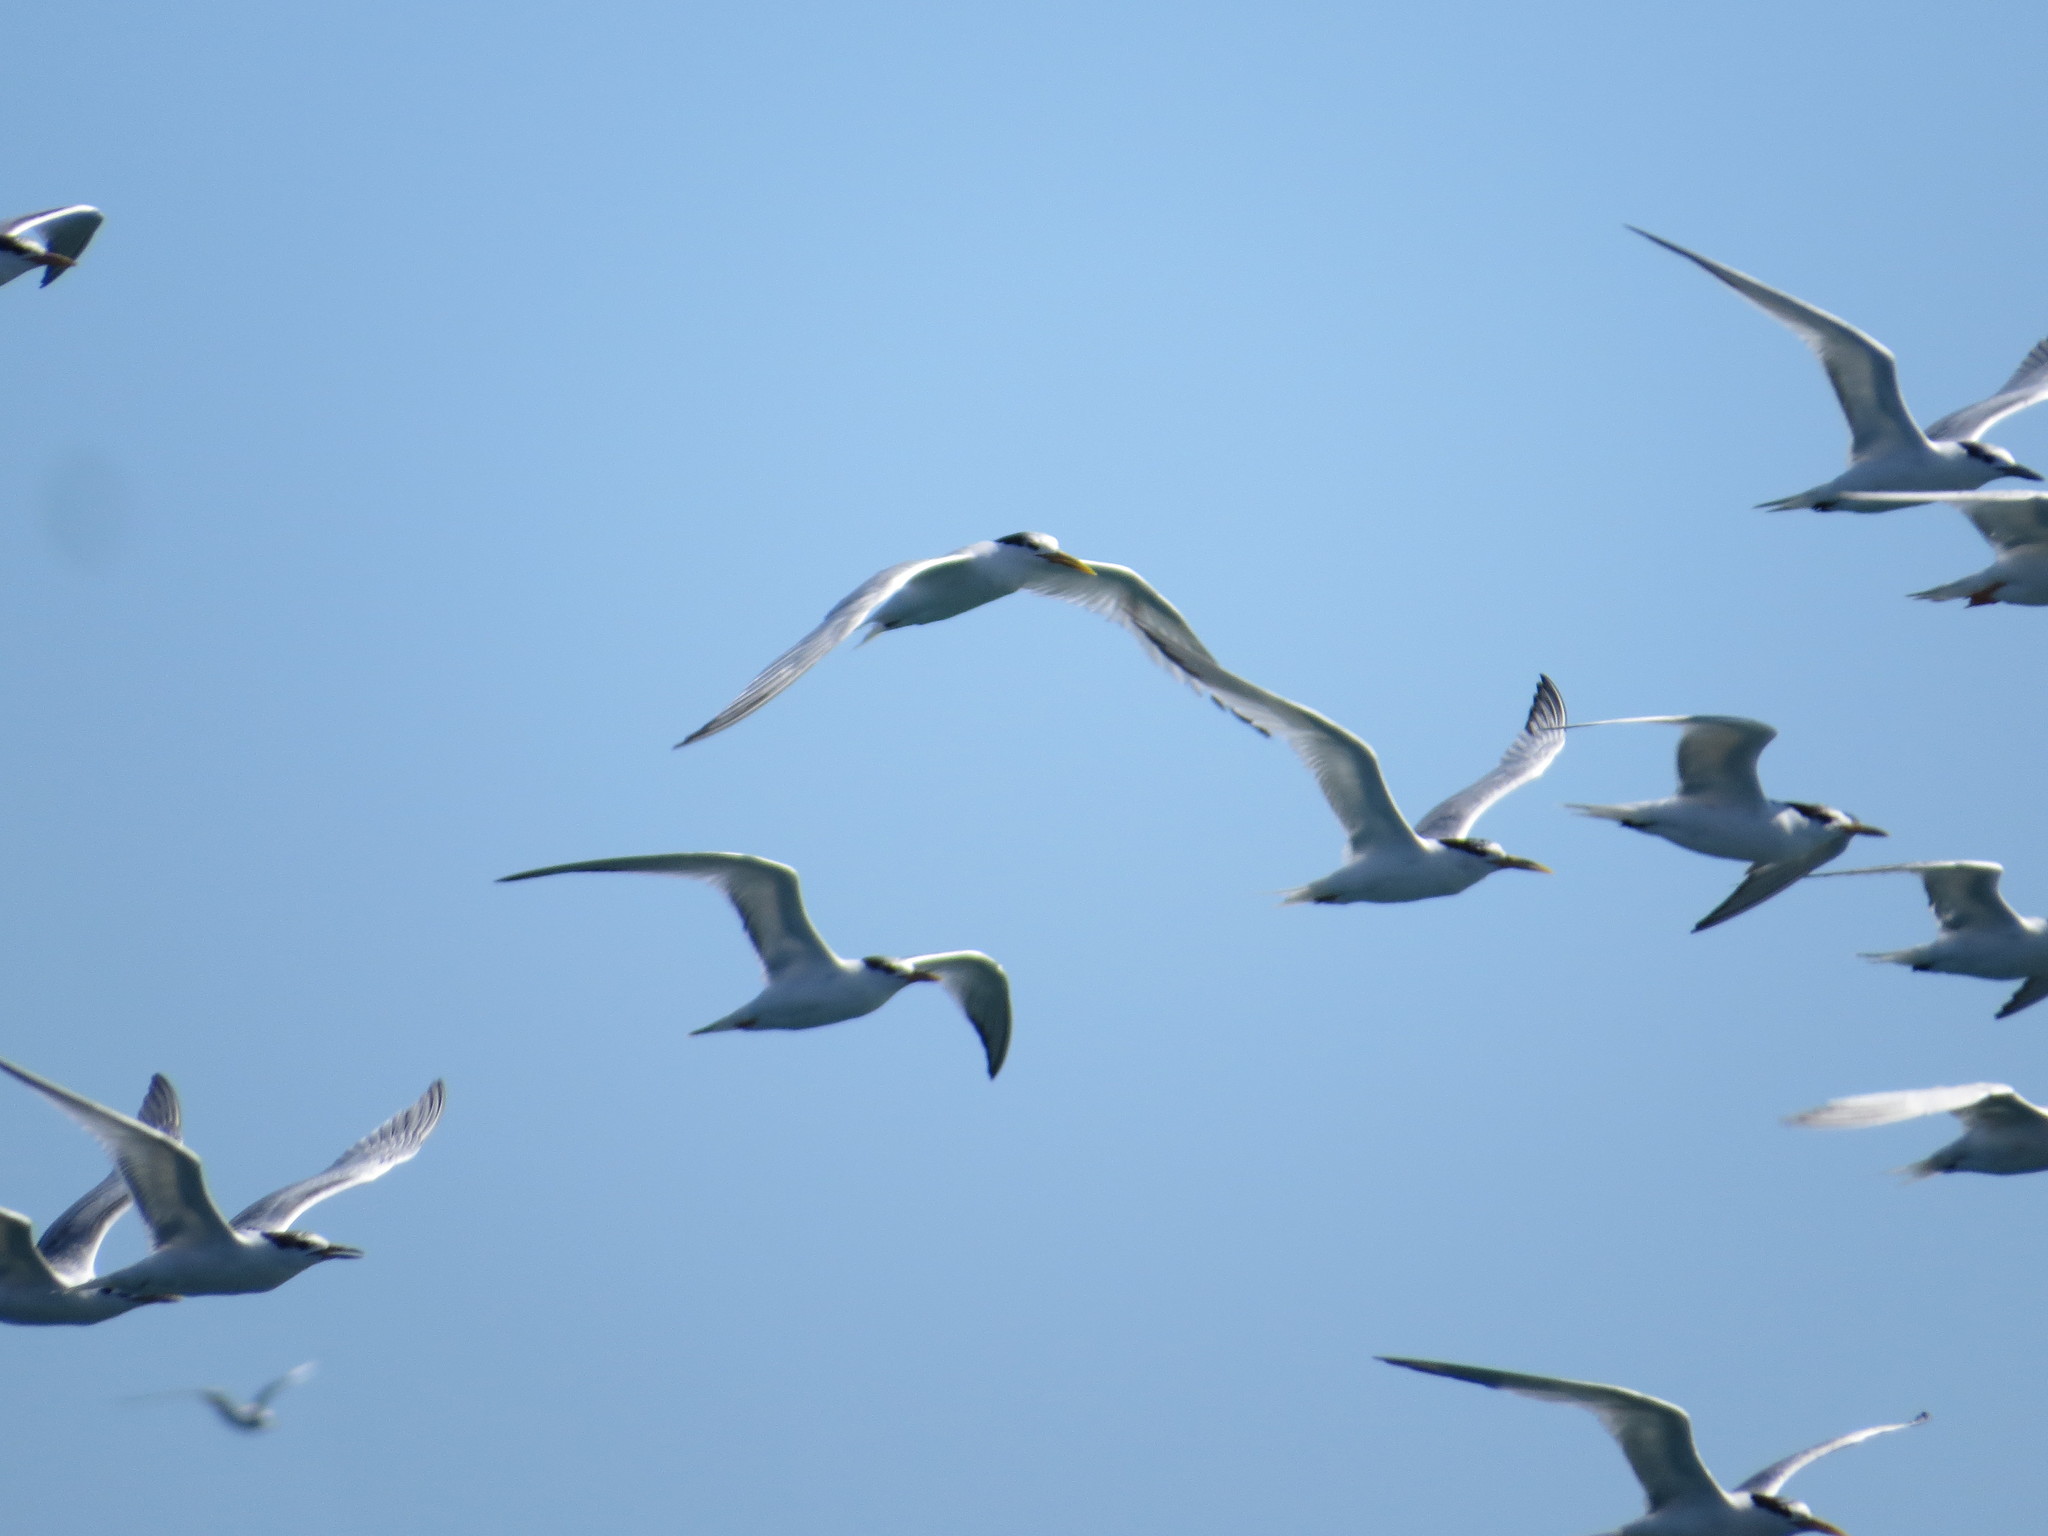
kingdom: Animalia
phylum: Chordata
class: Aves
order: Charadriiformes
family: Laridae
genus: Thalasseus
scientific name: Thalasseus acuflavidus
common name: Cabot's tern
